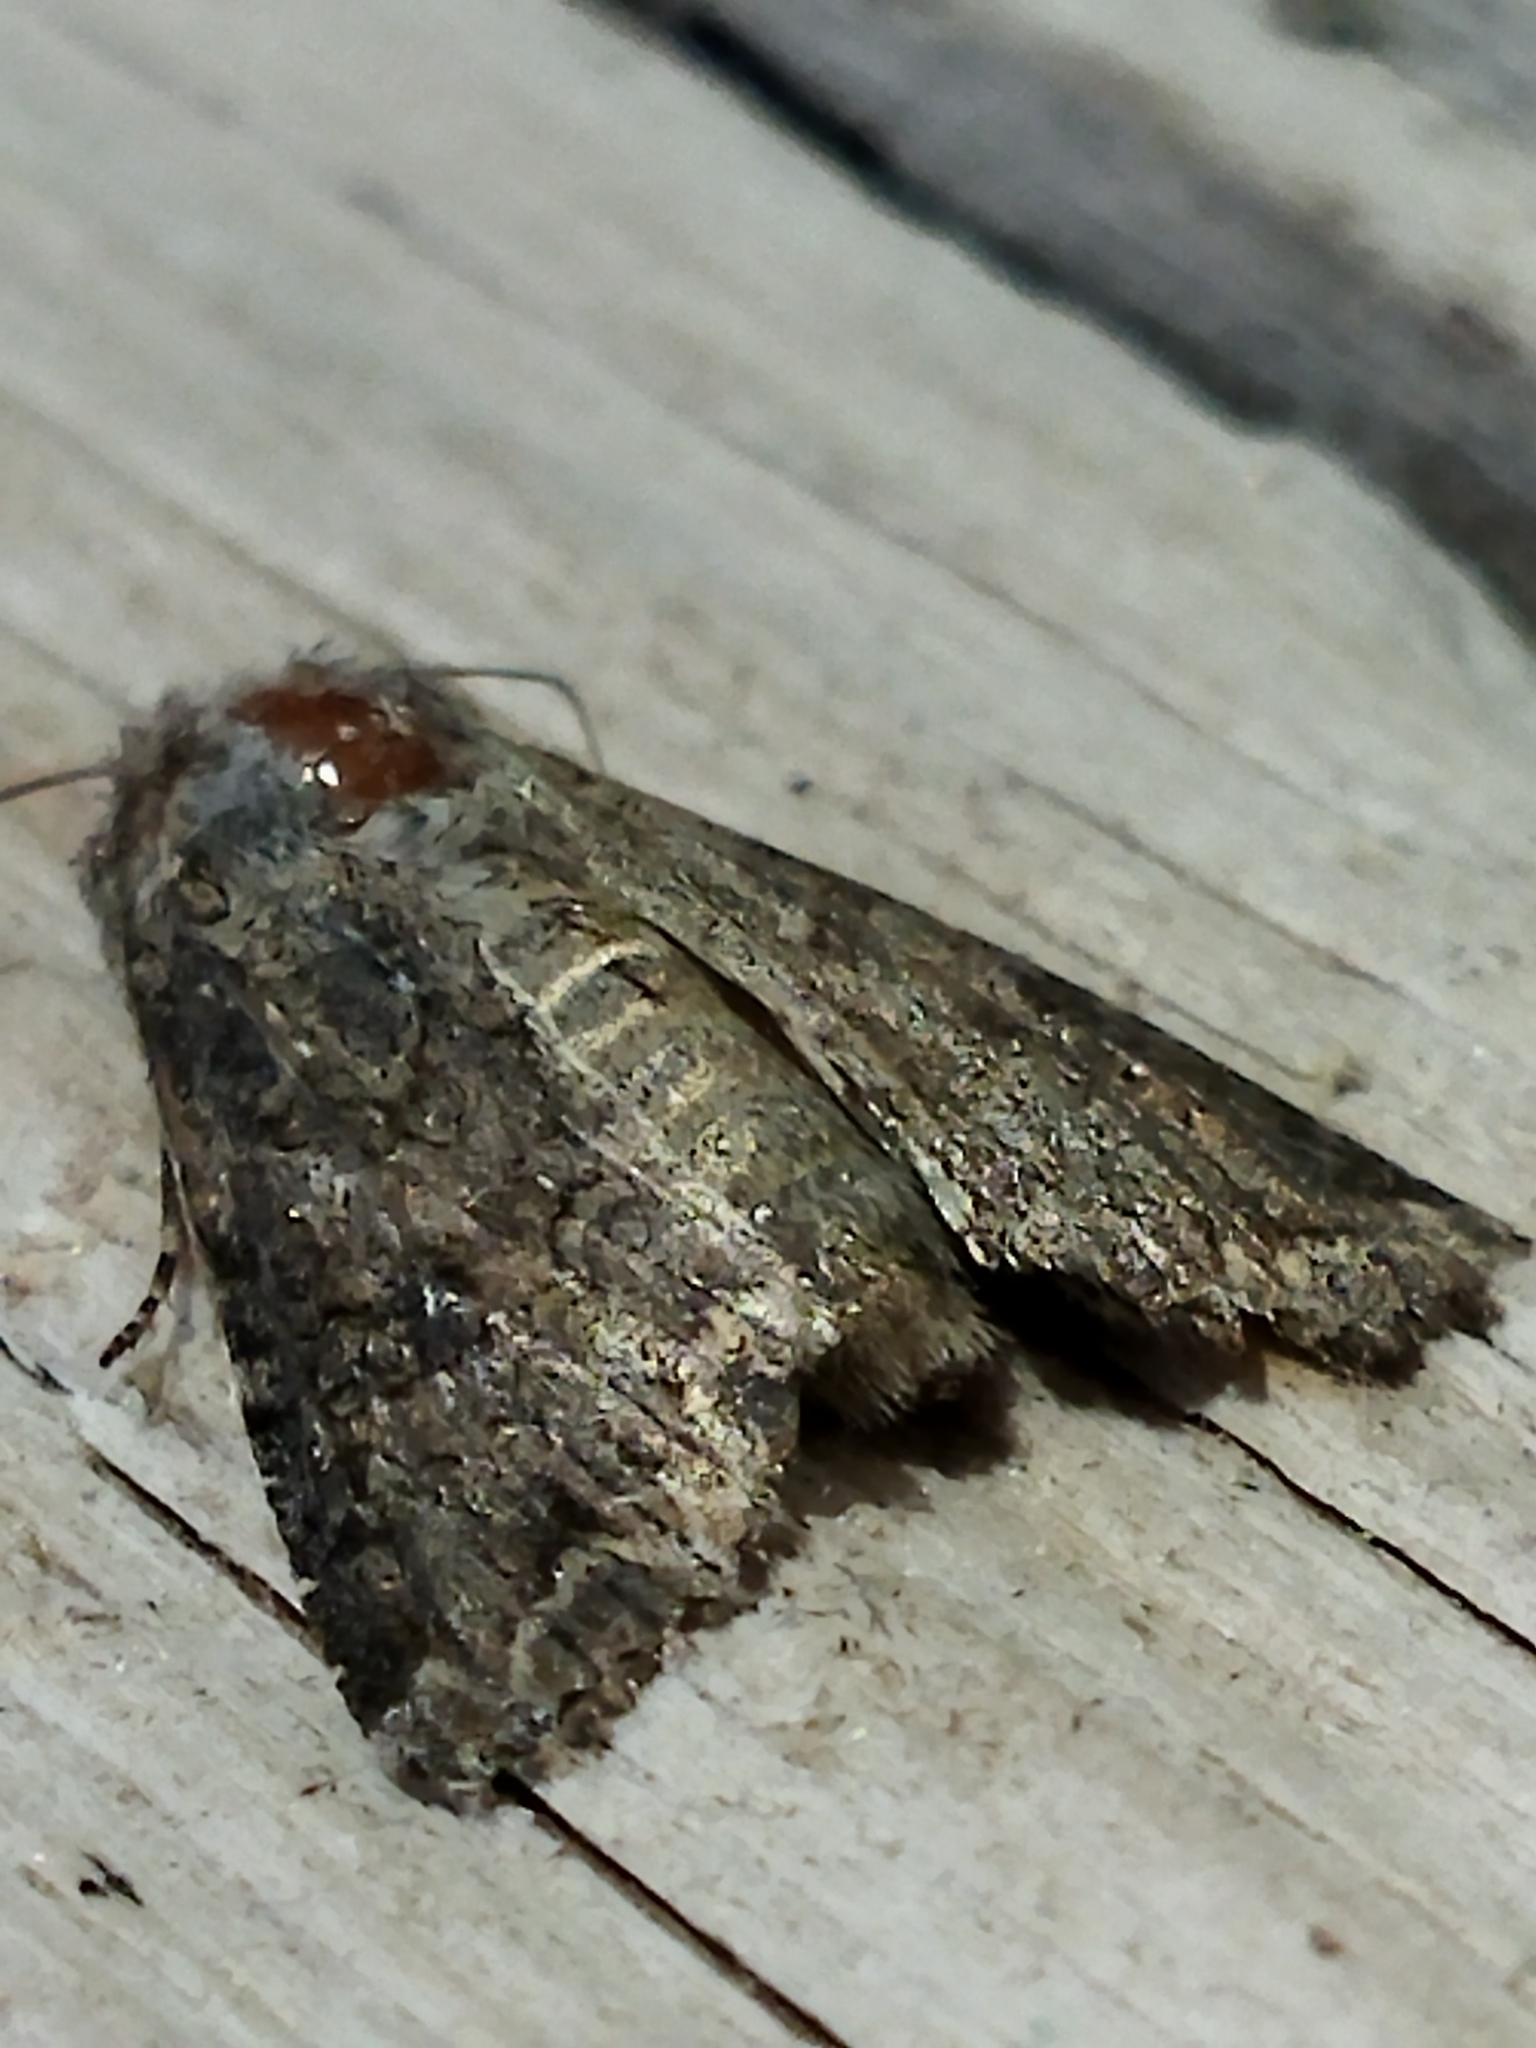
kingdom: Animalia
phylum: Arthropoda
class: Insecta
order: Lepidoptera
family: Noctuidae
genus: Anarta
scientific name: Anarta trifolii
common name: Clover cutworm moth
